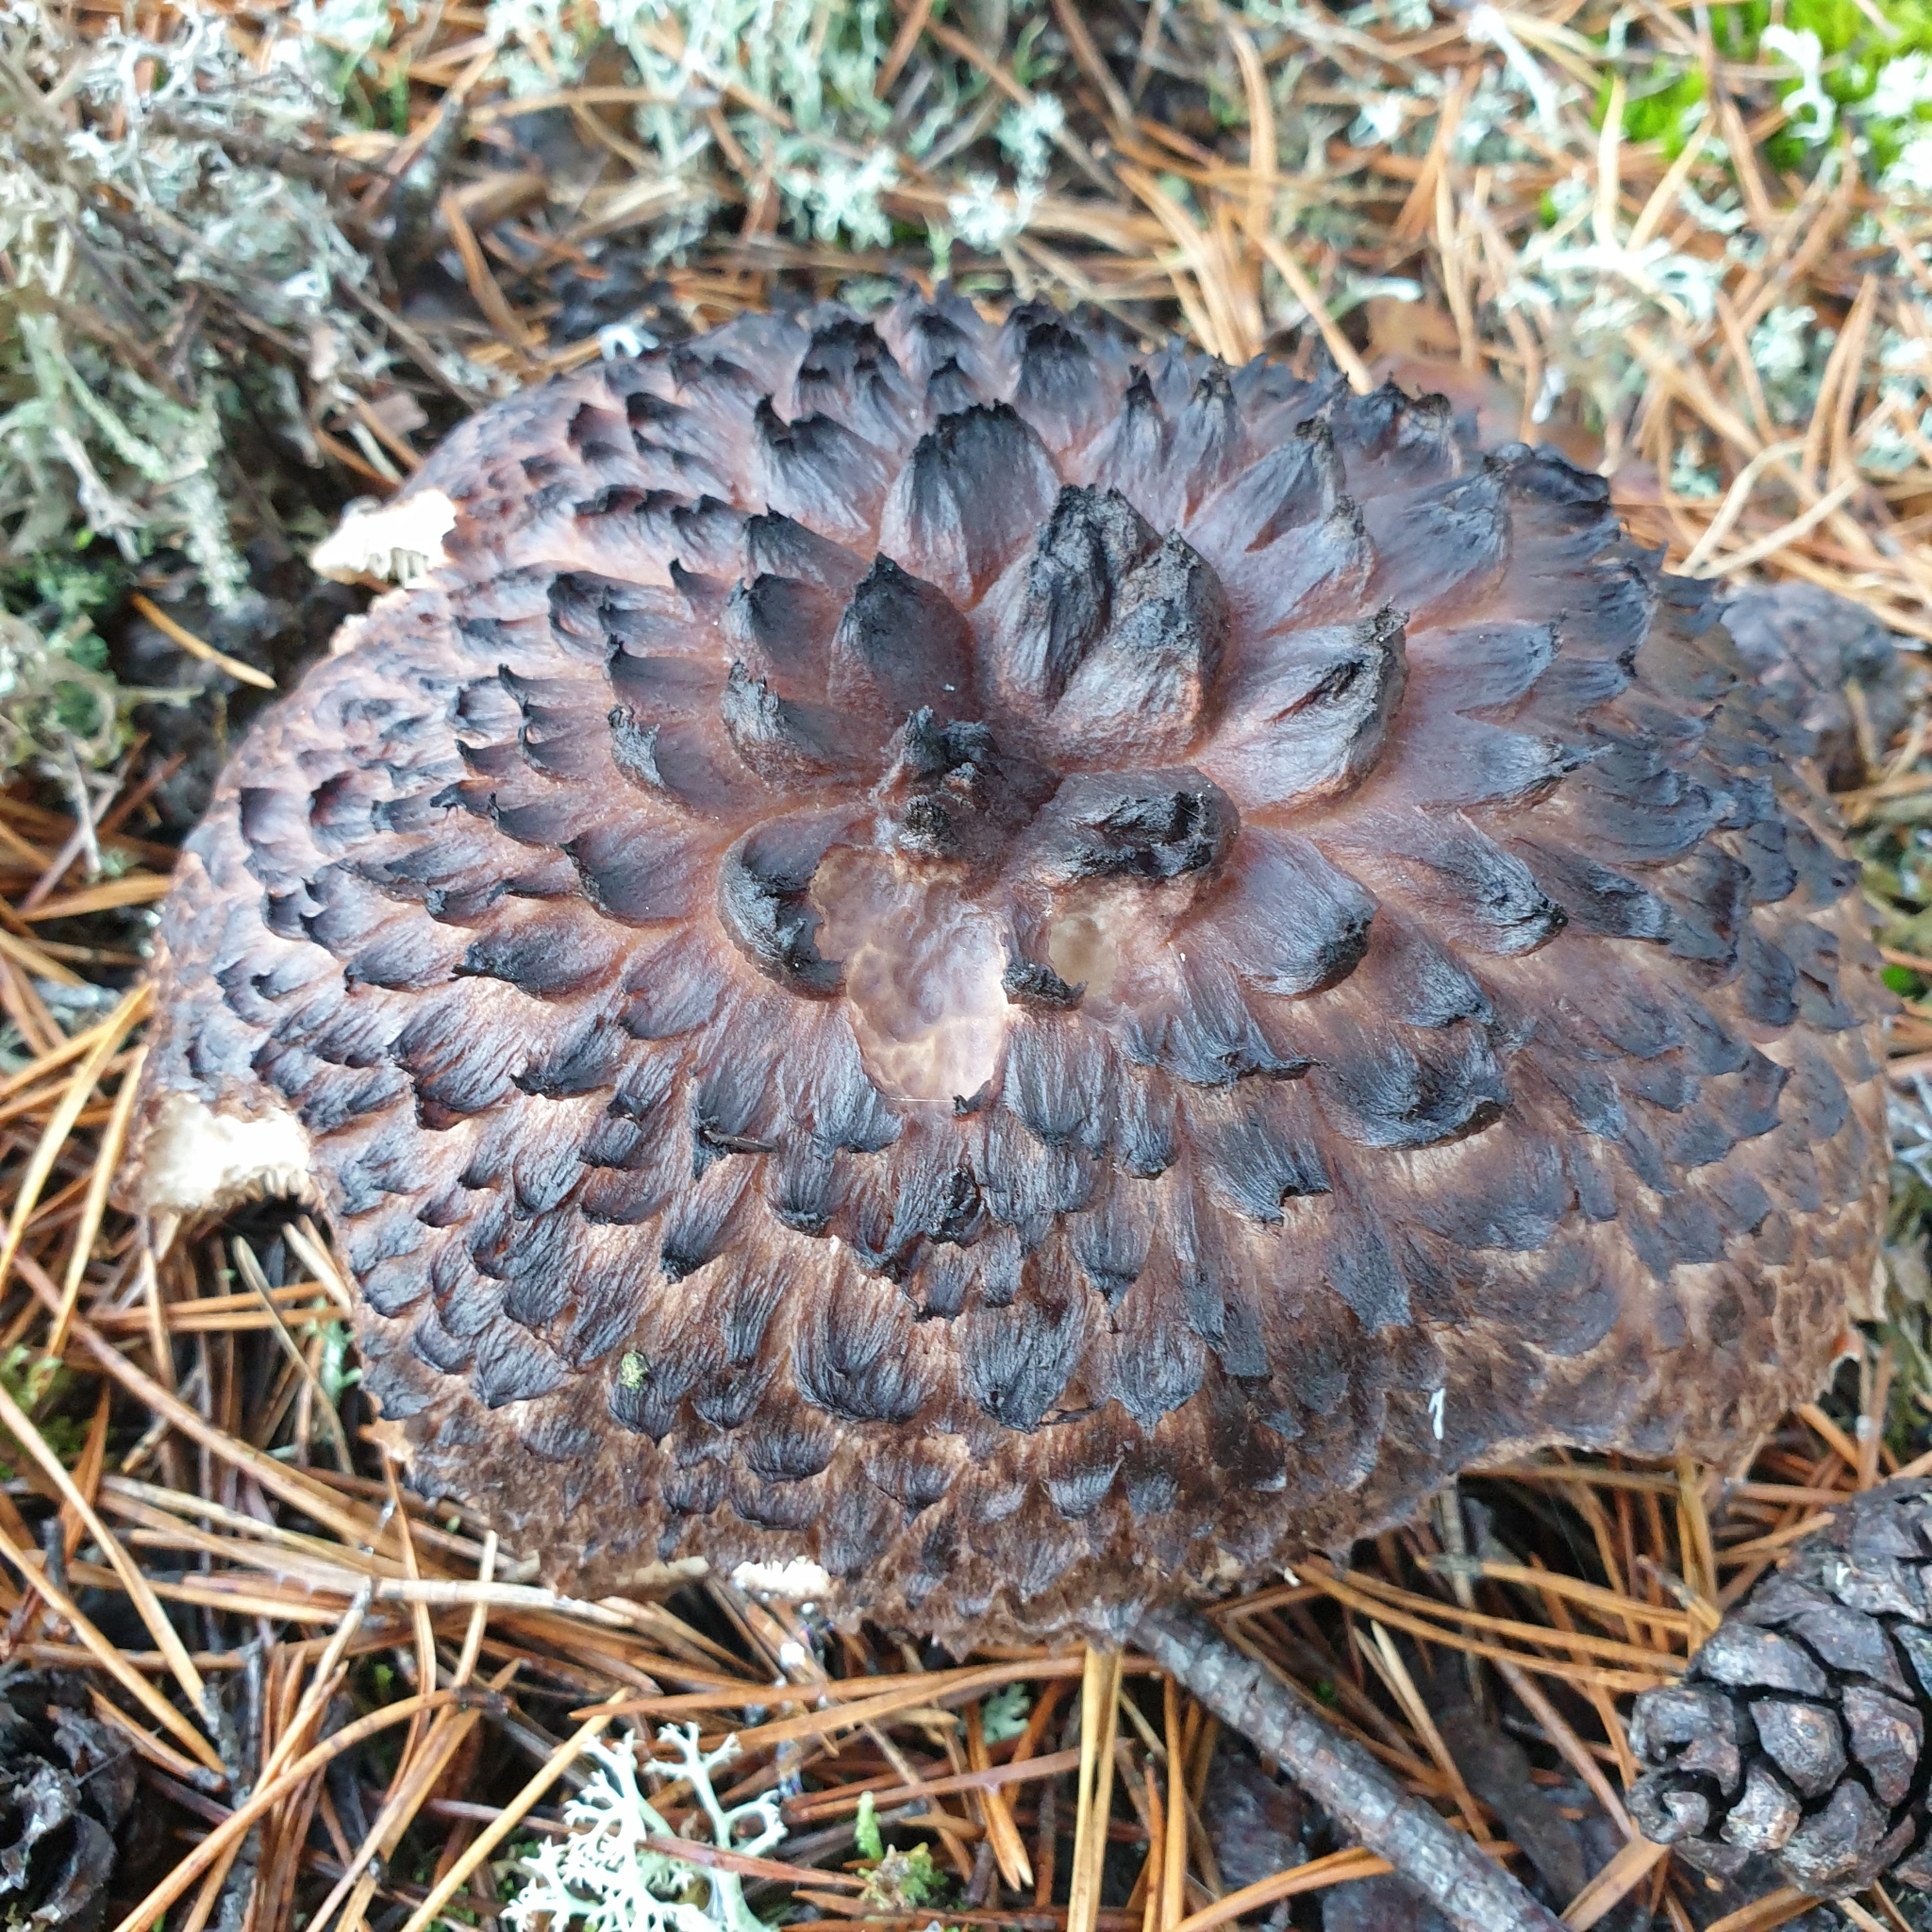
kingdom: Fungi
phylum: Basidiomycota
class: Agaricomycetes
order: Thelephorales
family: Bankeraceae
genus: Sarcodon
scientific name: Sarcodon imbricatus
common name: Shingled hedgehog
